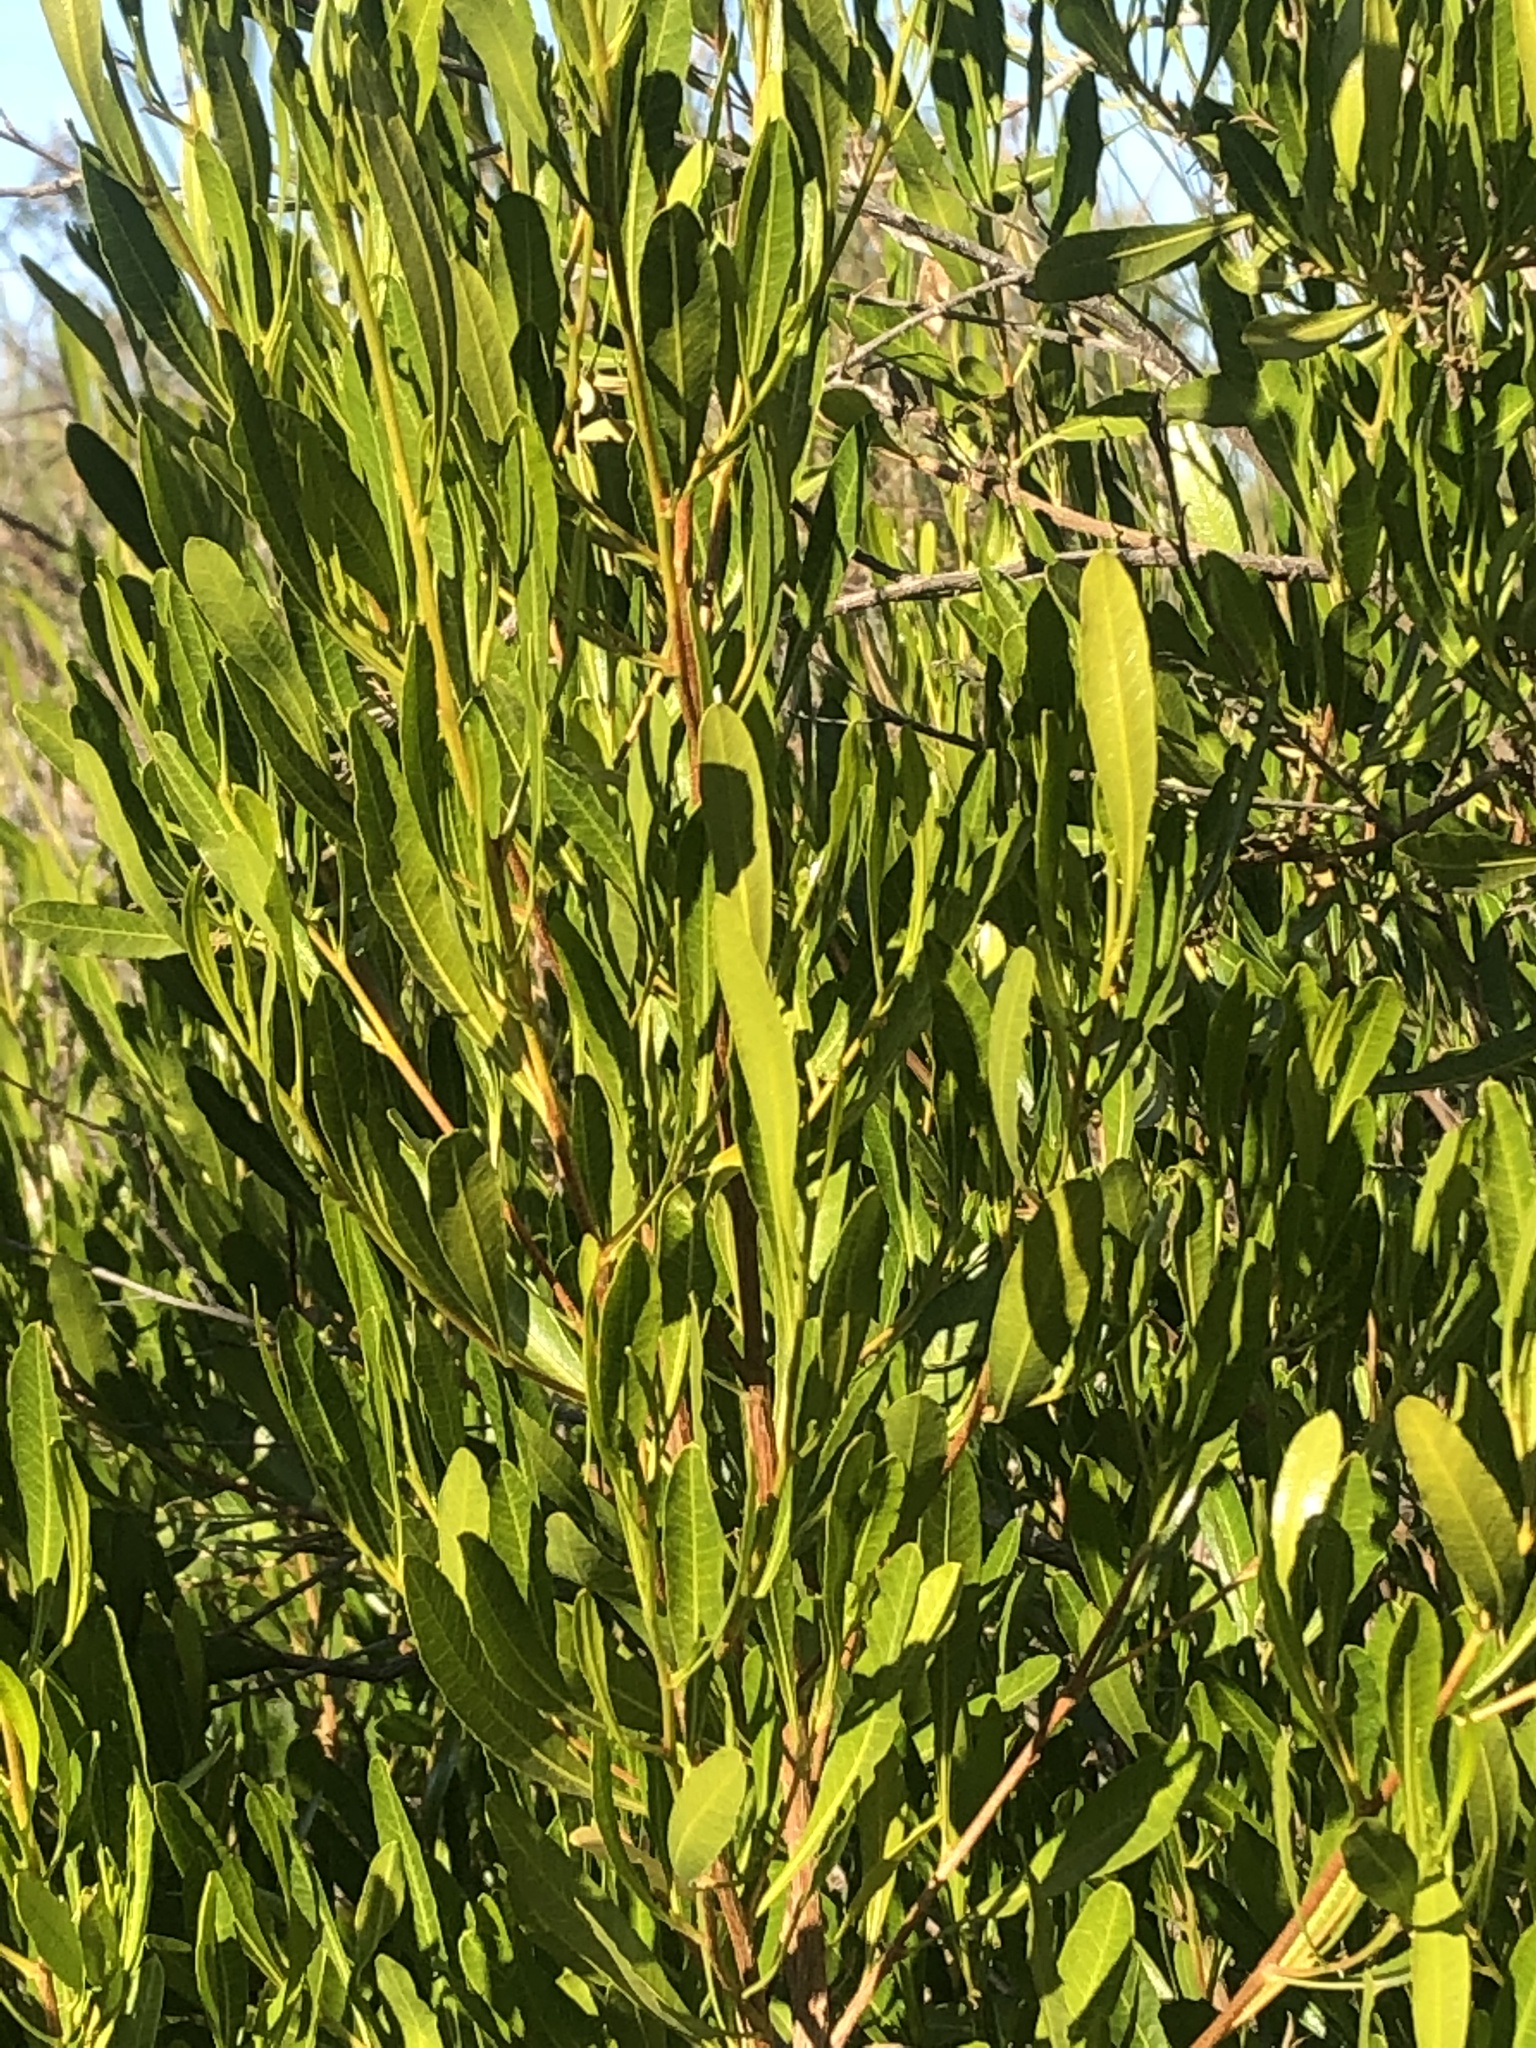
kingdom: Plantae
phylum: Tracheophyta
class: Magnoliopsida
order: Sapindales
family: Sapindaceae
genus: Dodonaea
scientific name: Dodonaea viscosa
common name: Hopbush
